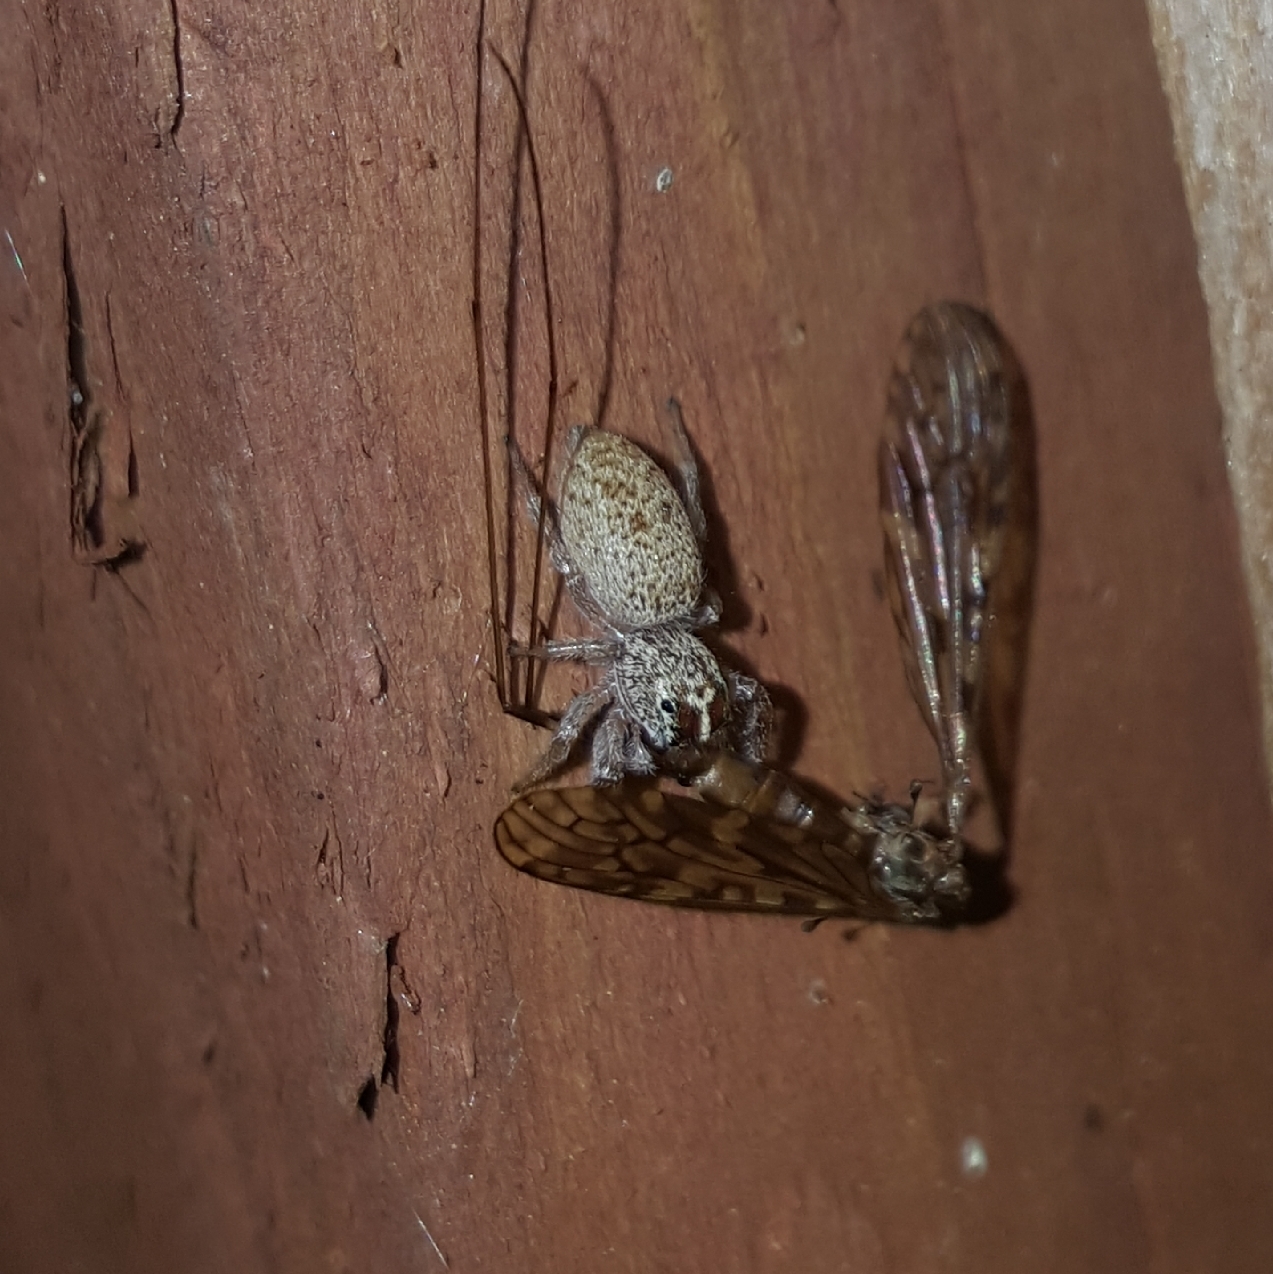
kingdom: Animalia
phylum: Arthropoda
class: Arachnida
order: Araneae
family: Salticidae
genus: Phanias
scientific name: Phanias
